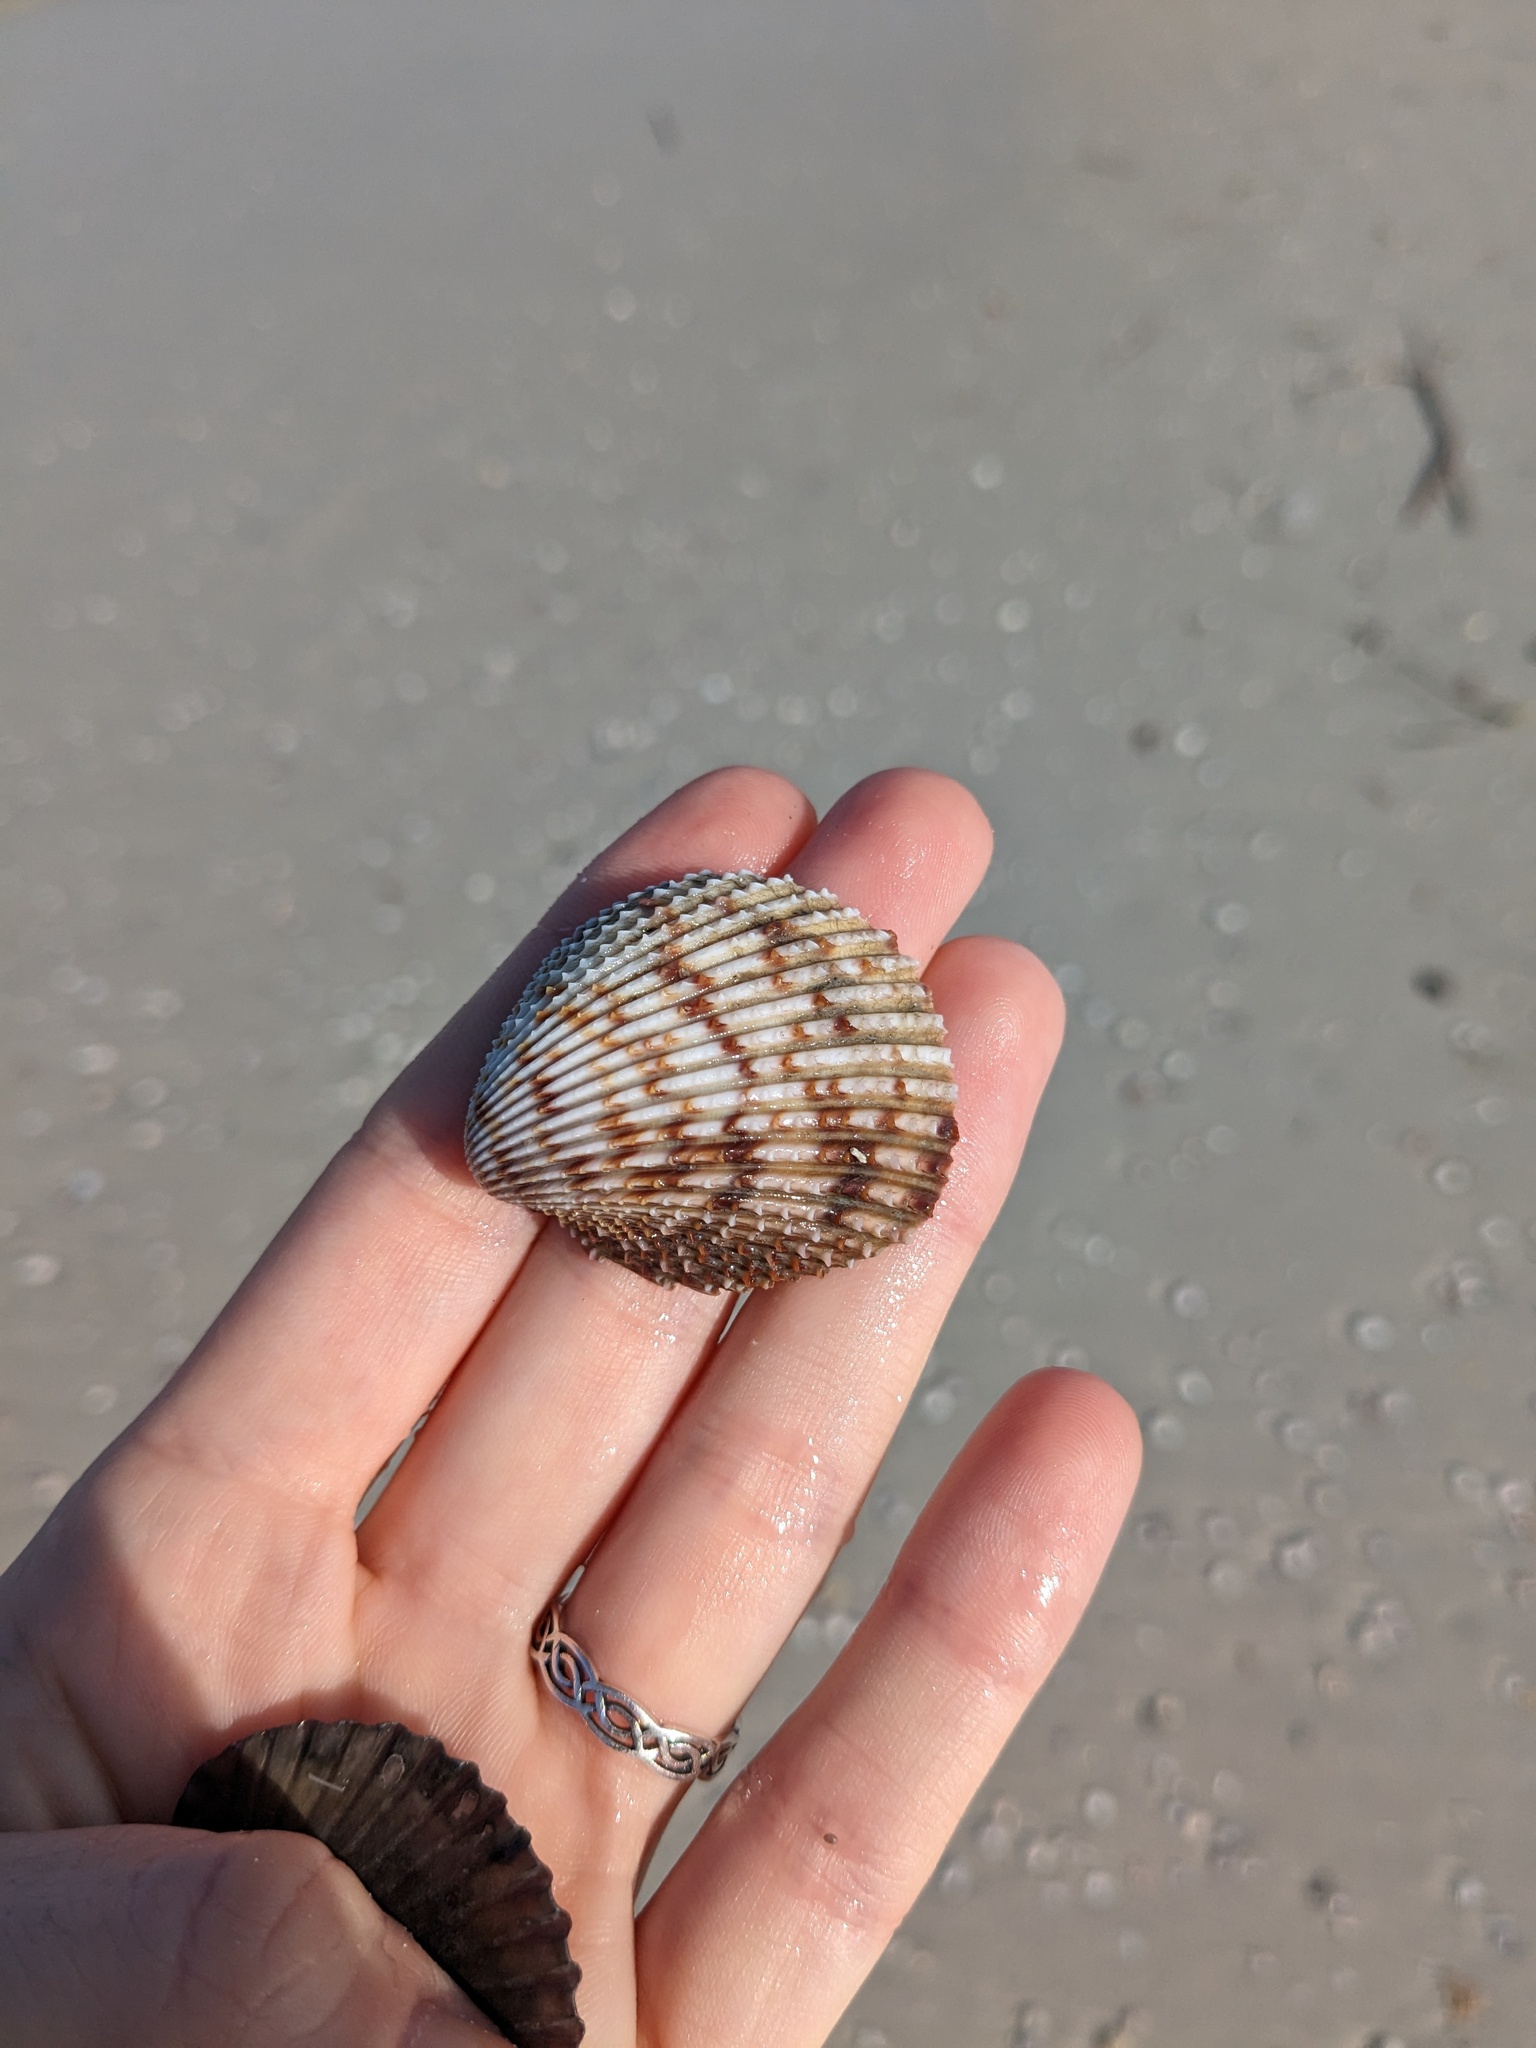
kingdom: Animalia
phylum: Mollusca
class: Bivalvia
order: Cardiida
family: Cardiidae
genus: Trachycardium
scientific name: Trachycardium egmontianum
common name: Florida pricklycockle
